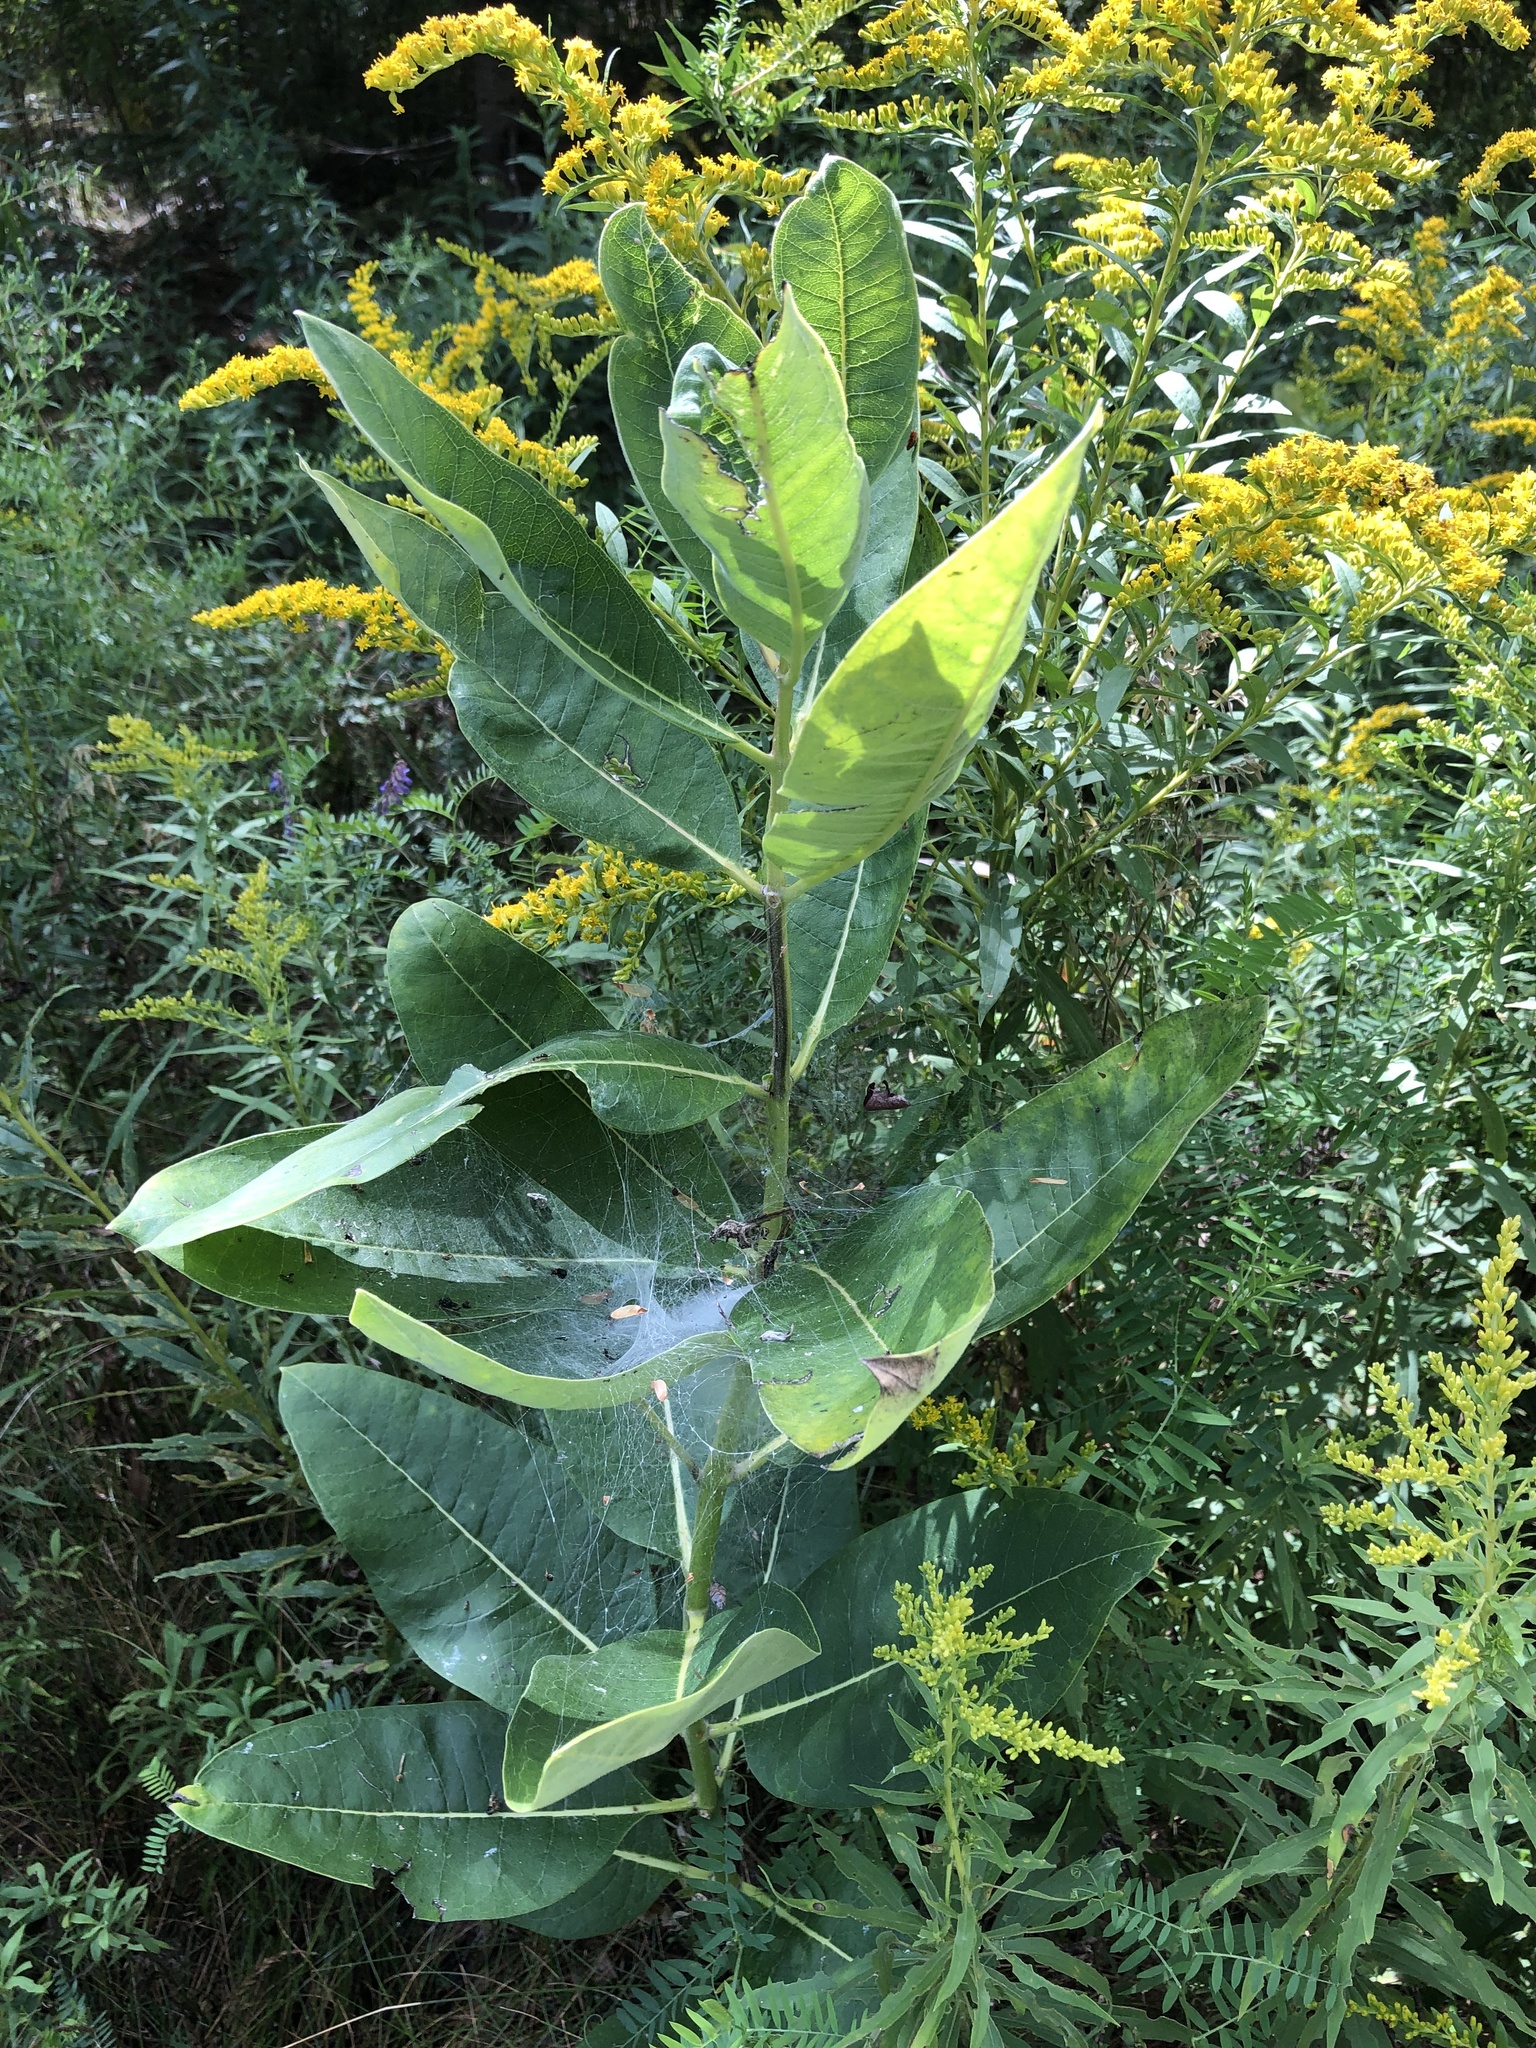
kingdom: Plantae
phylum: Tracheophyta
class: Magnoliopsida
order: Gentianales
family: Apocynaceae
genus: Asclepias
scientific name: Asclepias syriaca
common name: Common milkweed
